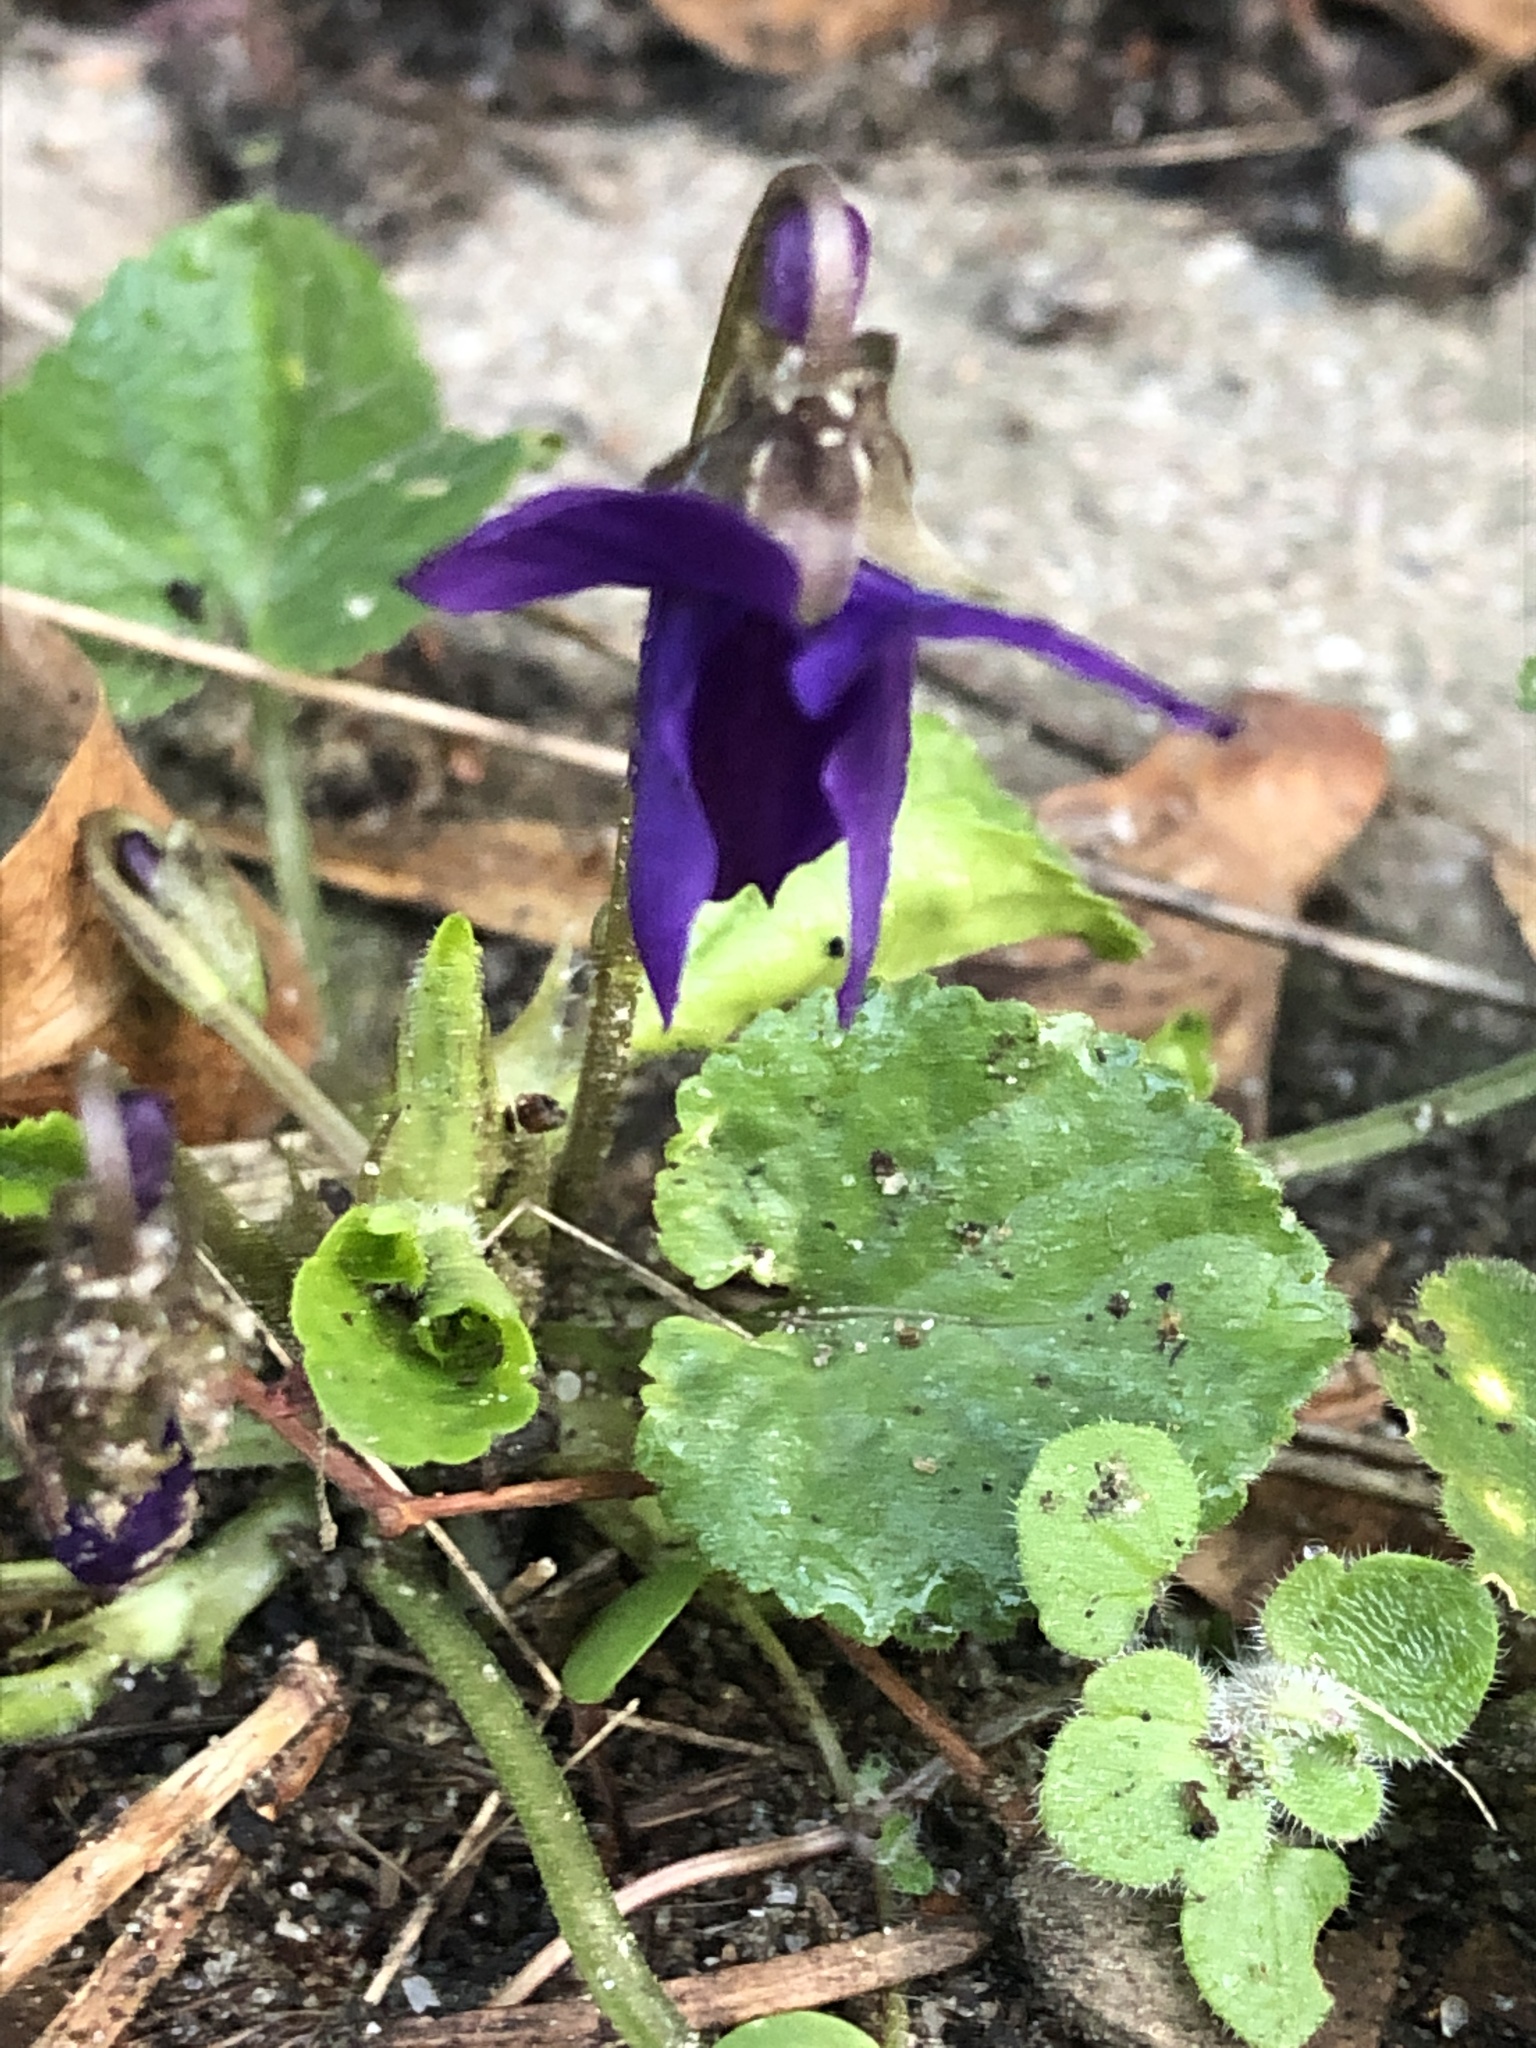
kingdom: Plantae
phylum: Tracheophyta
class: Magnoliopsida
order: Malpighiales
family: Violaceae
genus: Viola
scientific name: Viola odorata
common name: Sweet violet
